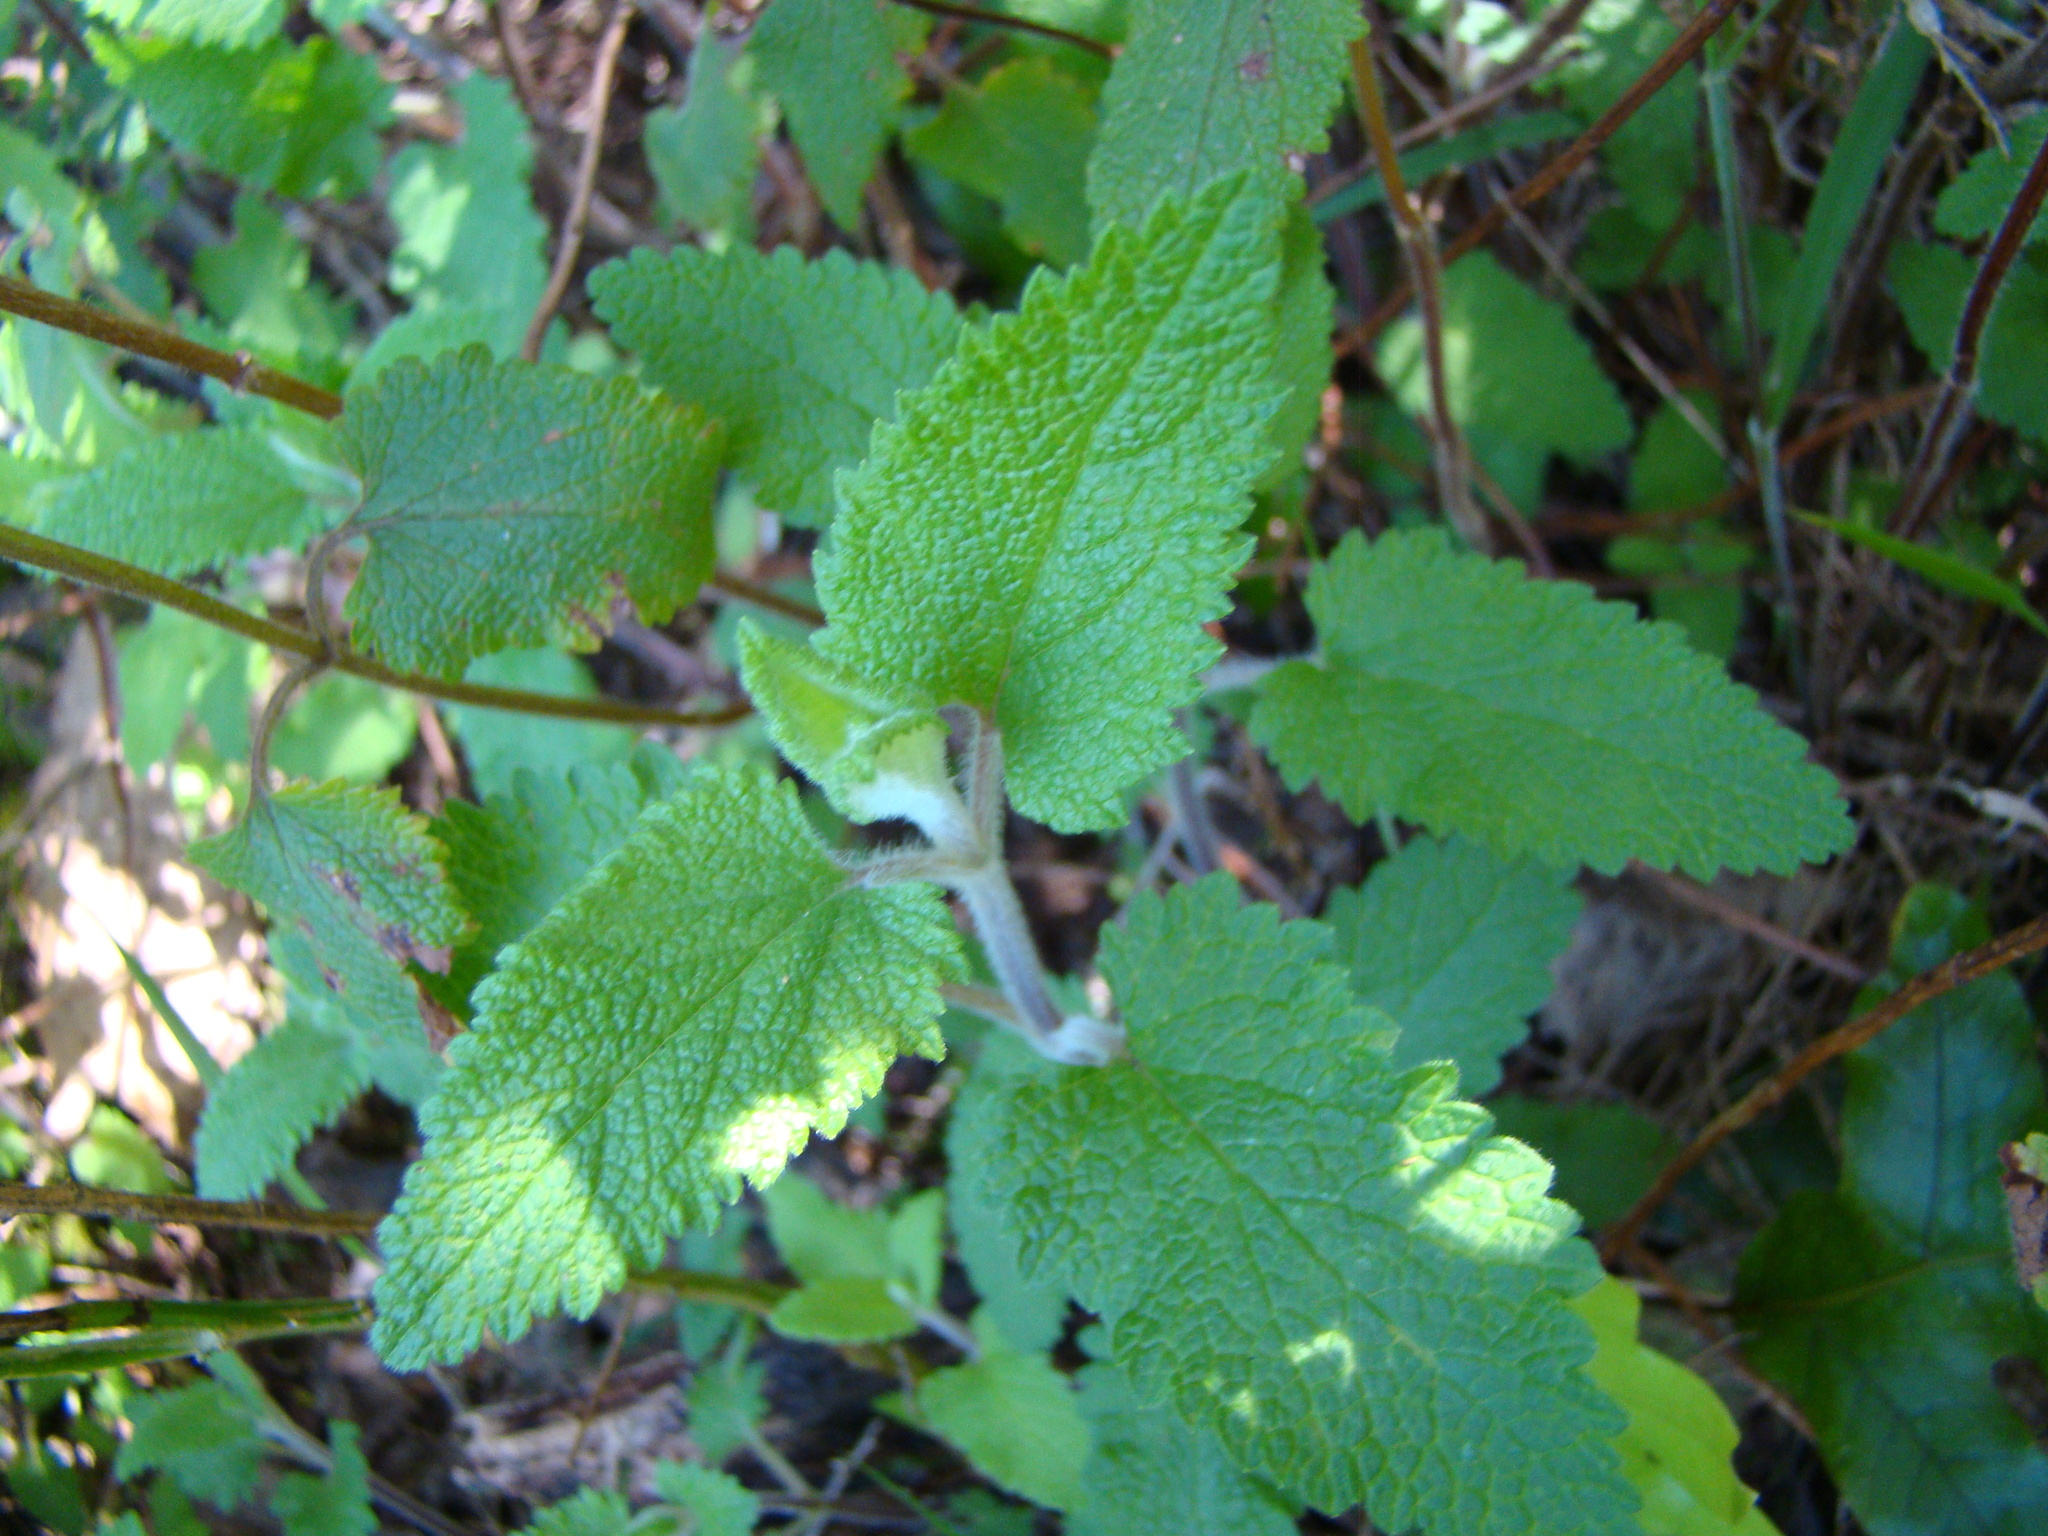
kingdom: Plantae
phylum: Tracheophyta
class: Magnoliopsida
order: Lamiales
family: Lamiaceae
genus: Teucrium
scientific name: Teucrium scorodonia
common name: Woodland germander
